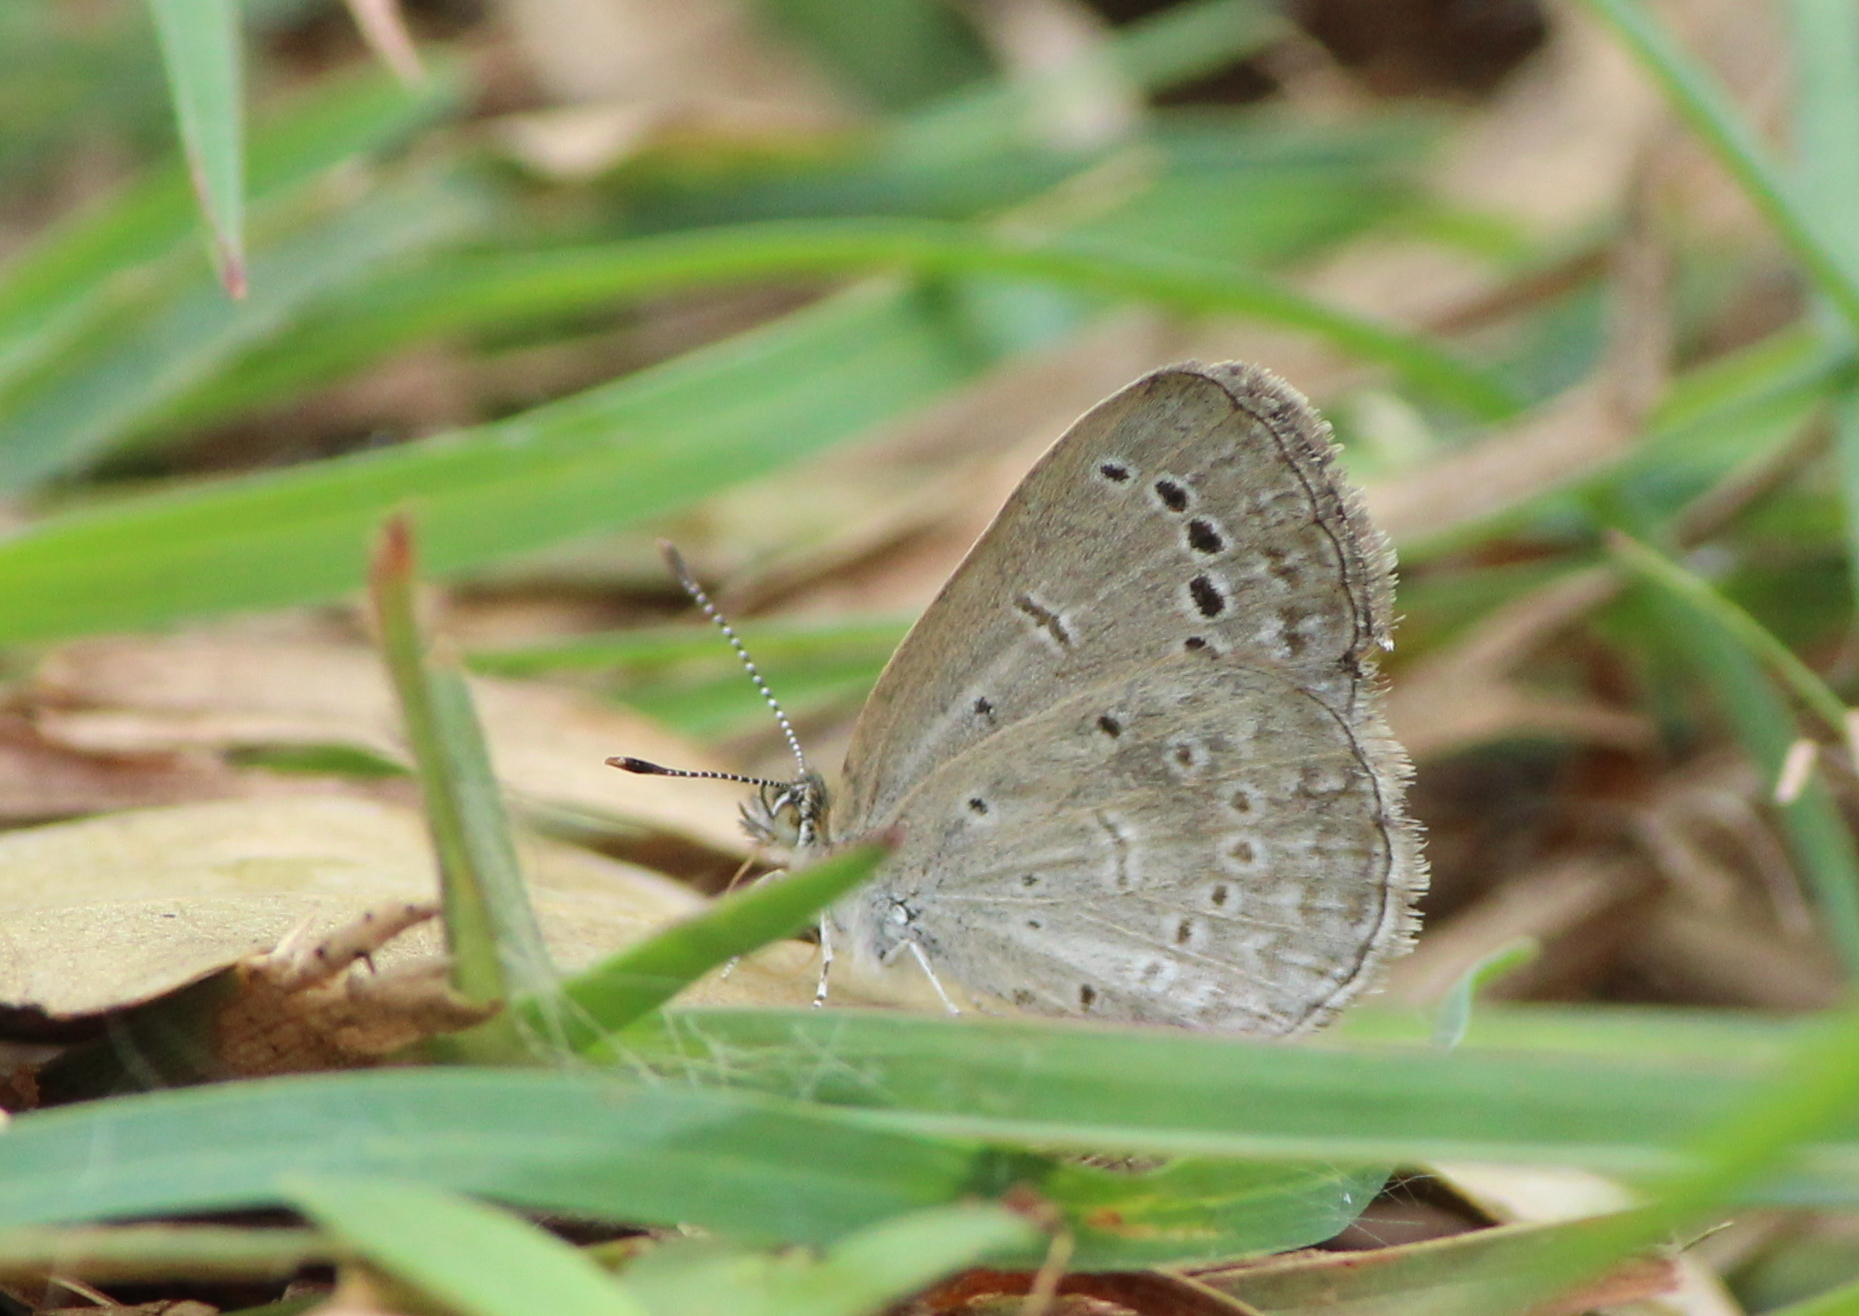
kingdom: Animalia
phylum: Arthropoda
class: Insecta
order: Lepidoptera
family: Lycaenidae
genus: Pseudozizeeria
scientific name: Pseudozizeeria maha
